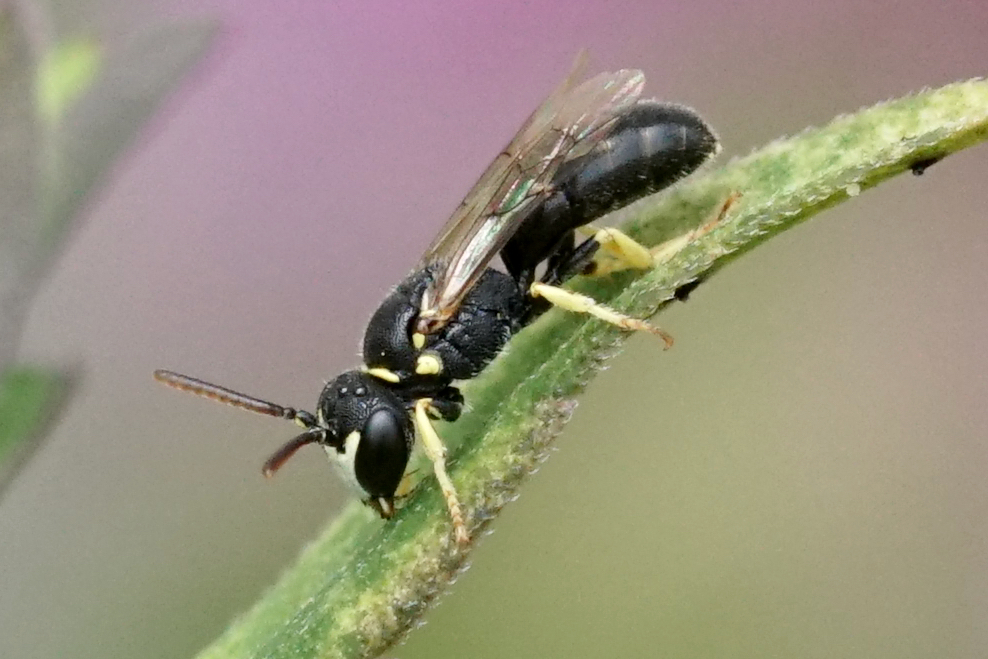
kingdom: Animalia
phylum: Arthropoda
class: Insecta
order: Hymenoptera
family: Colletidae
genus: Hylaeus
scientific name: Hylaeus pictipes
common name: Little yellow-face bee
